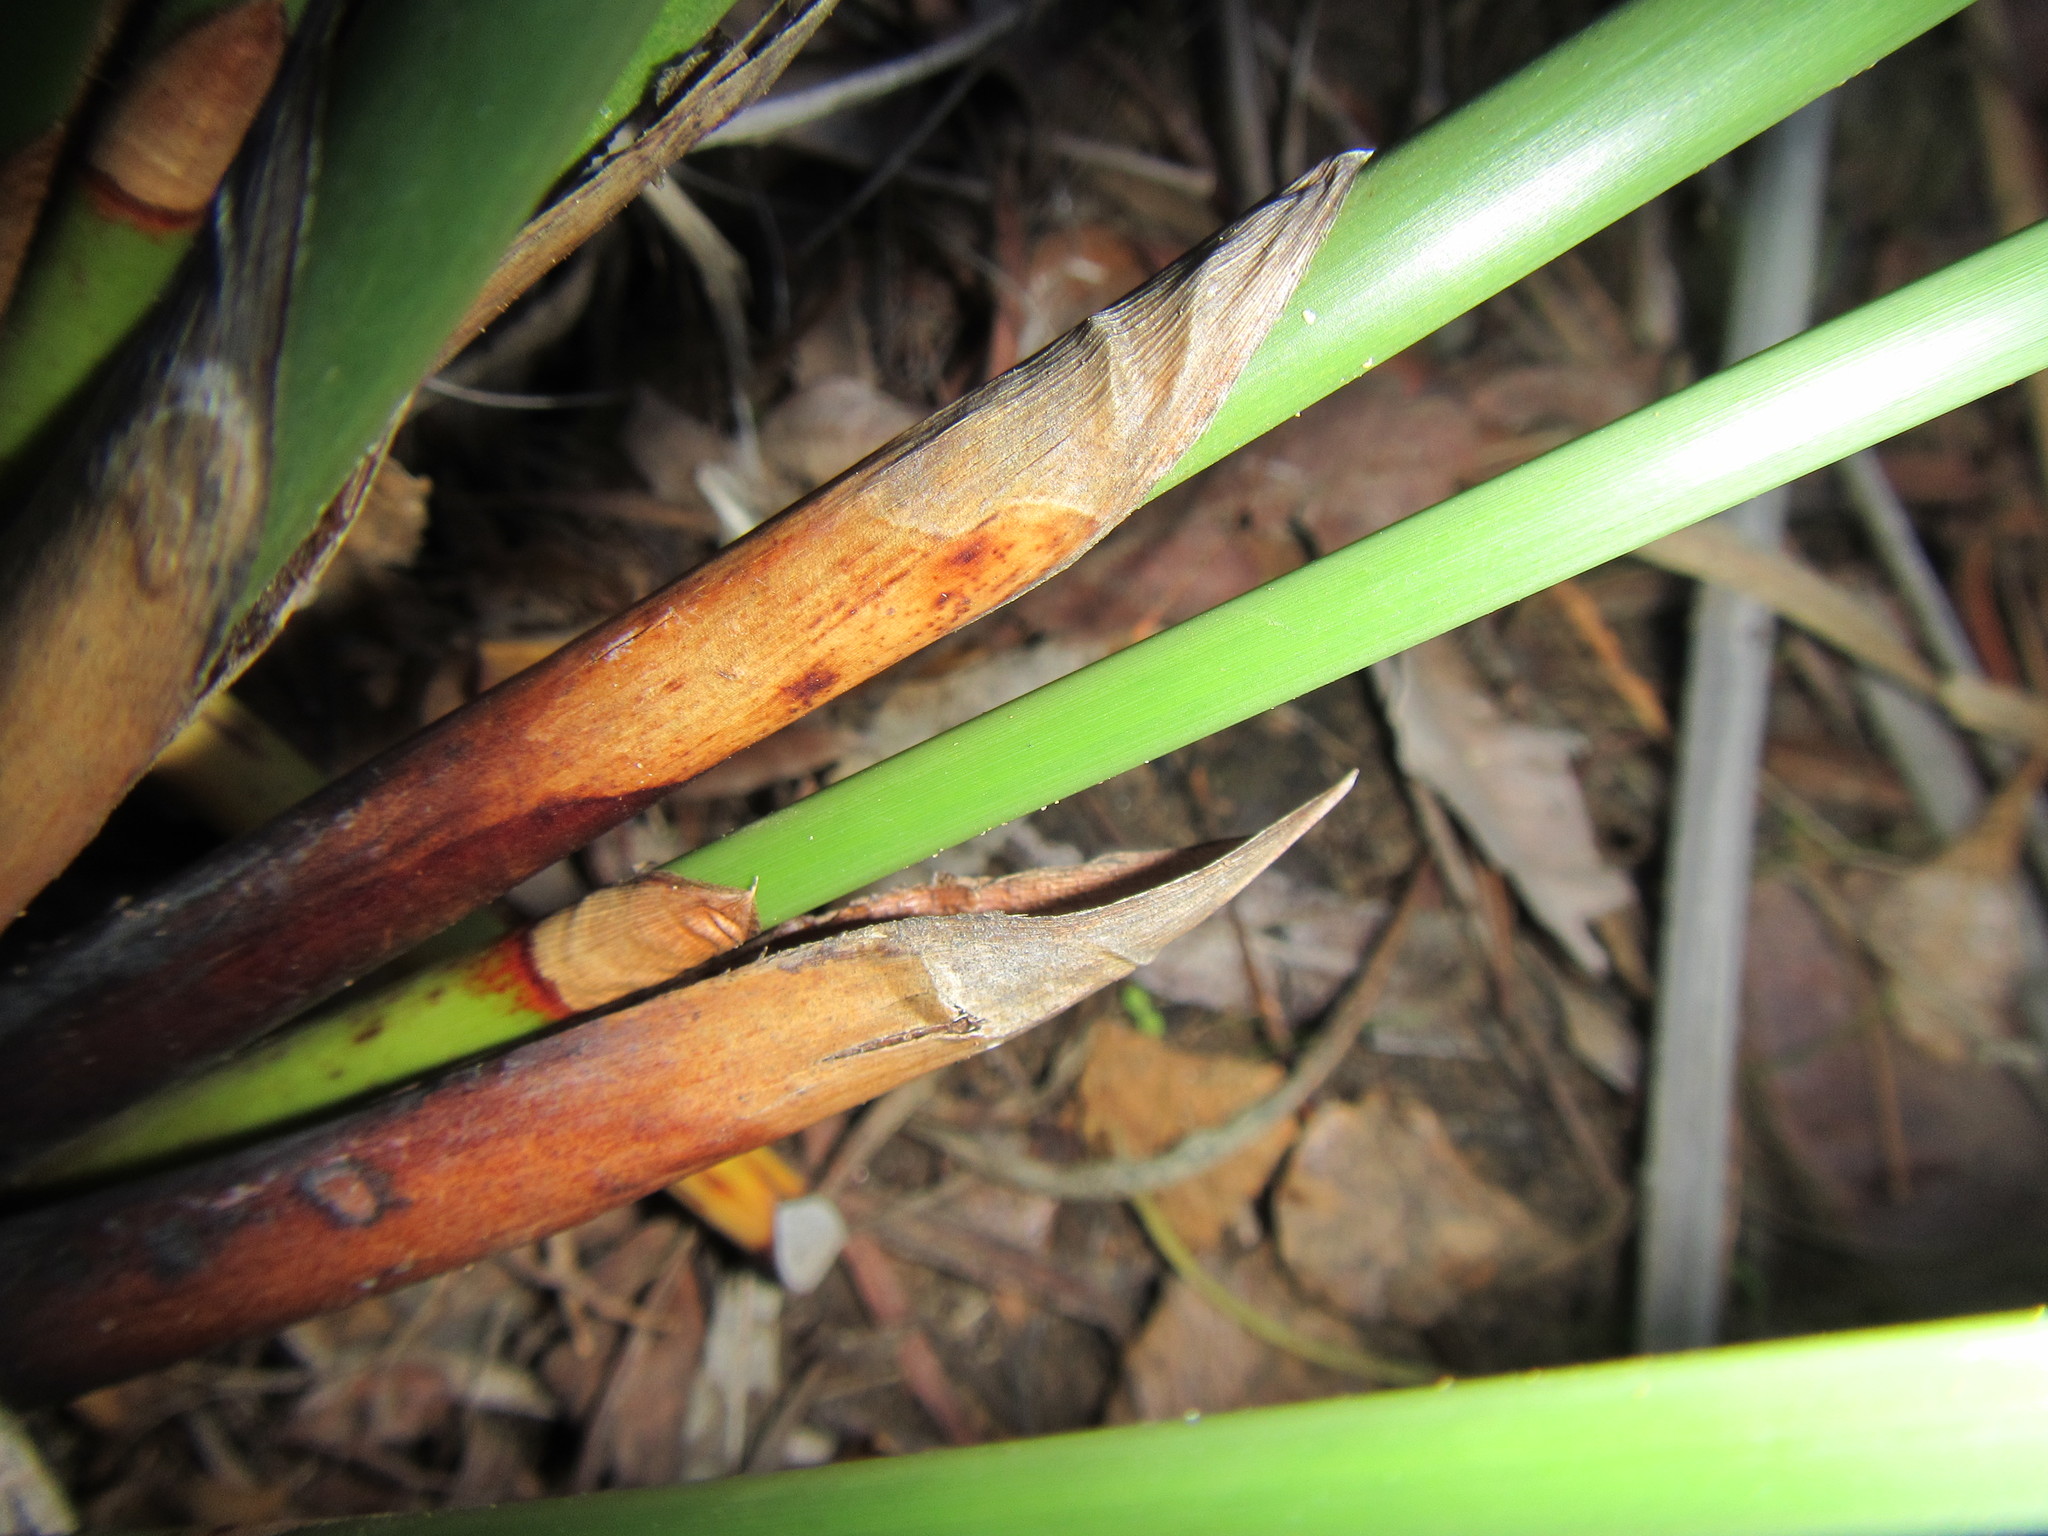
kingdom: Plantae
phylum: Tracheophyta
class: Liliopsida
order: Poales
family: Cyperaceae
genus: Pseudoschoenus
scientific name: Pseudoschoenus inanis
